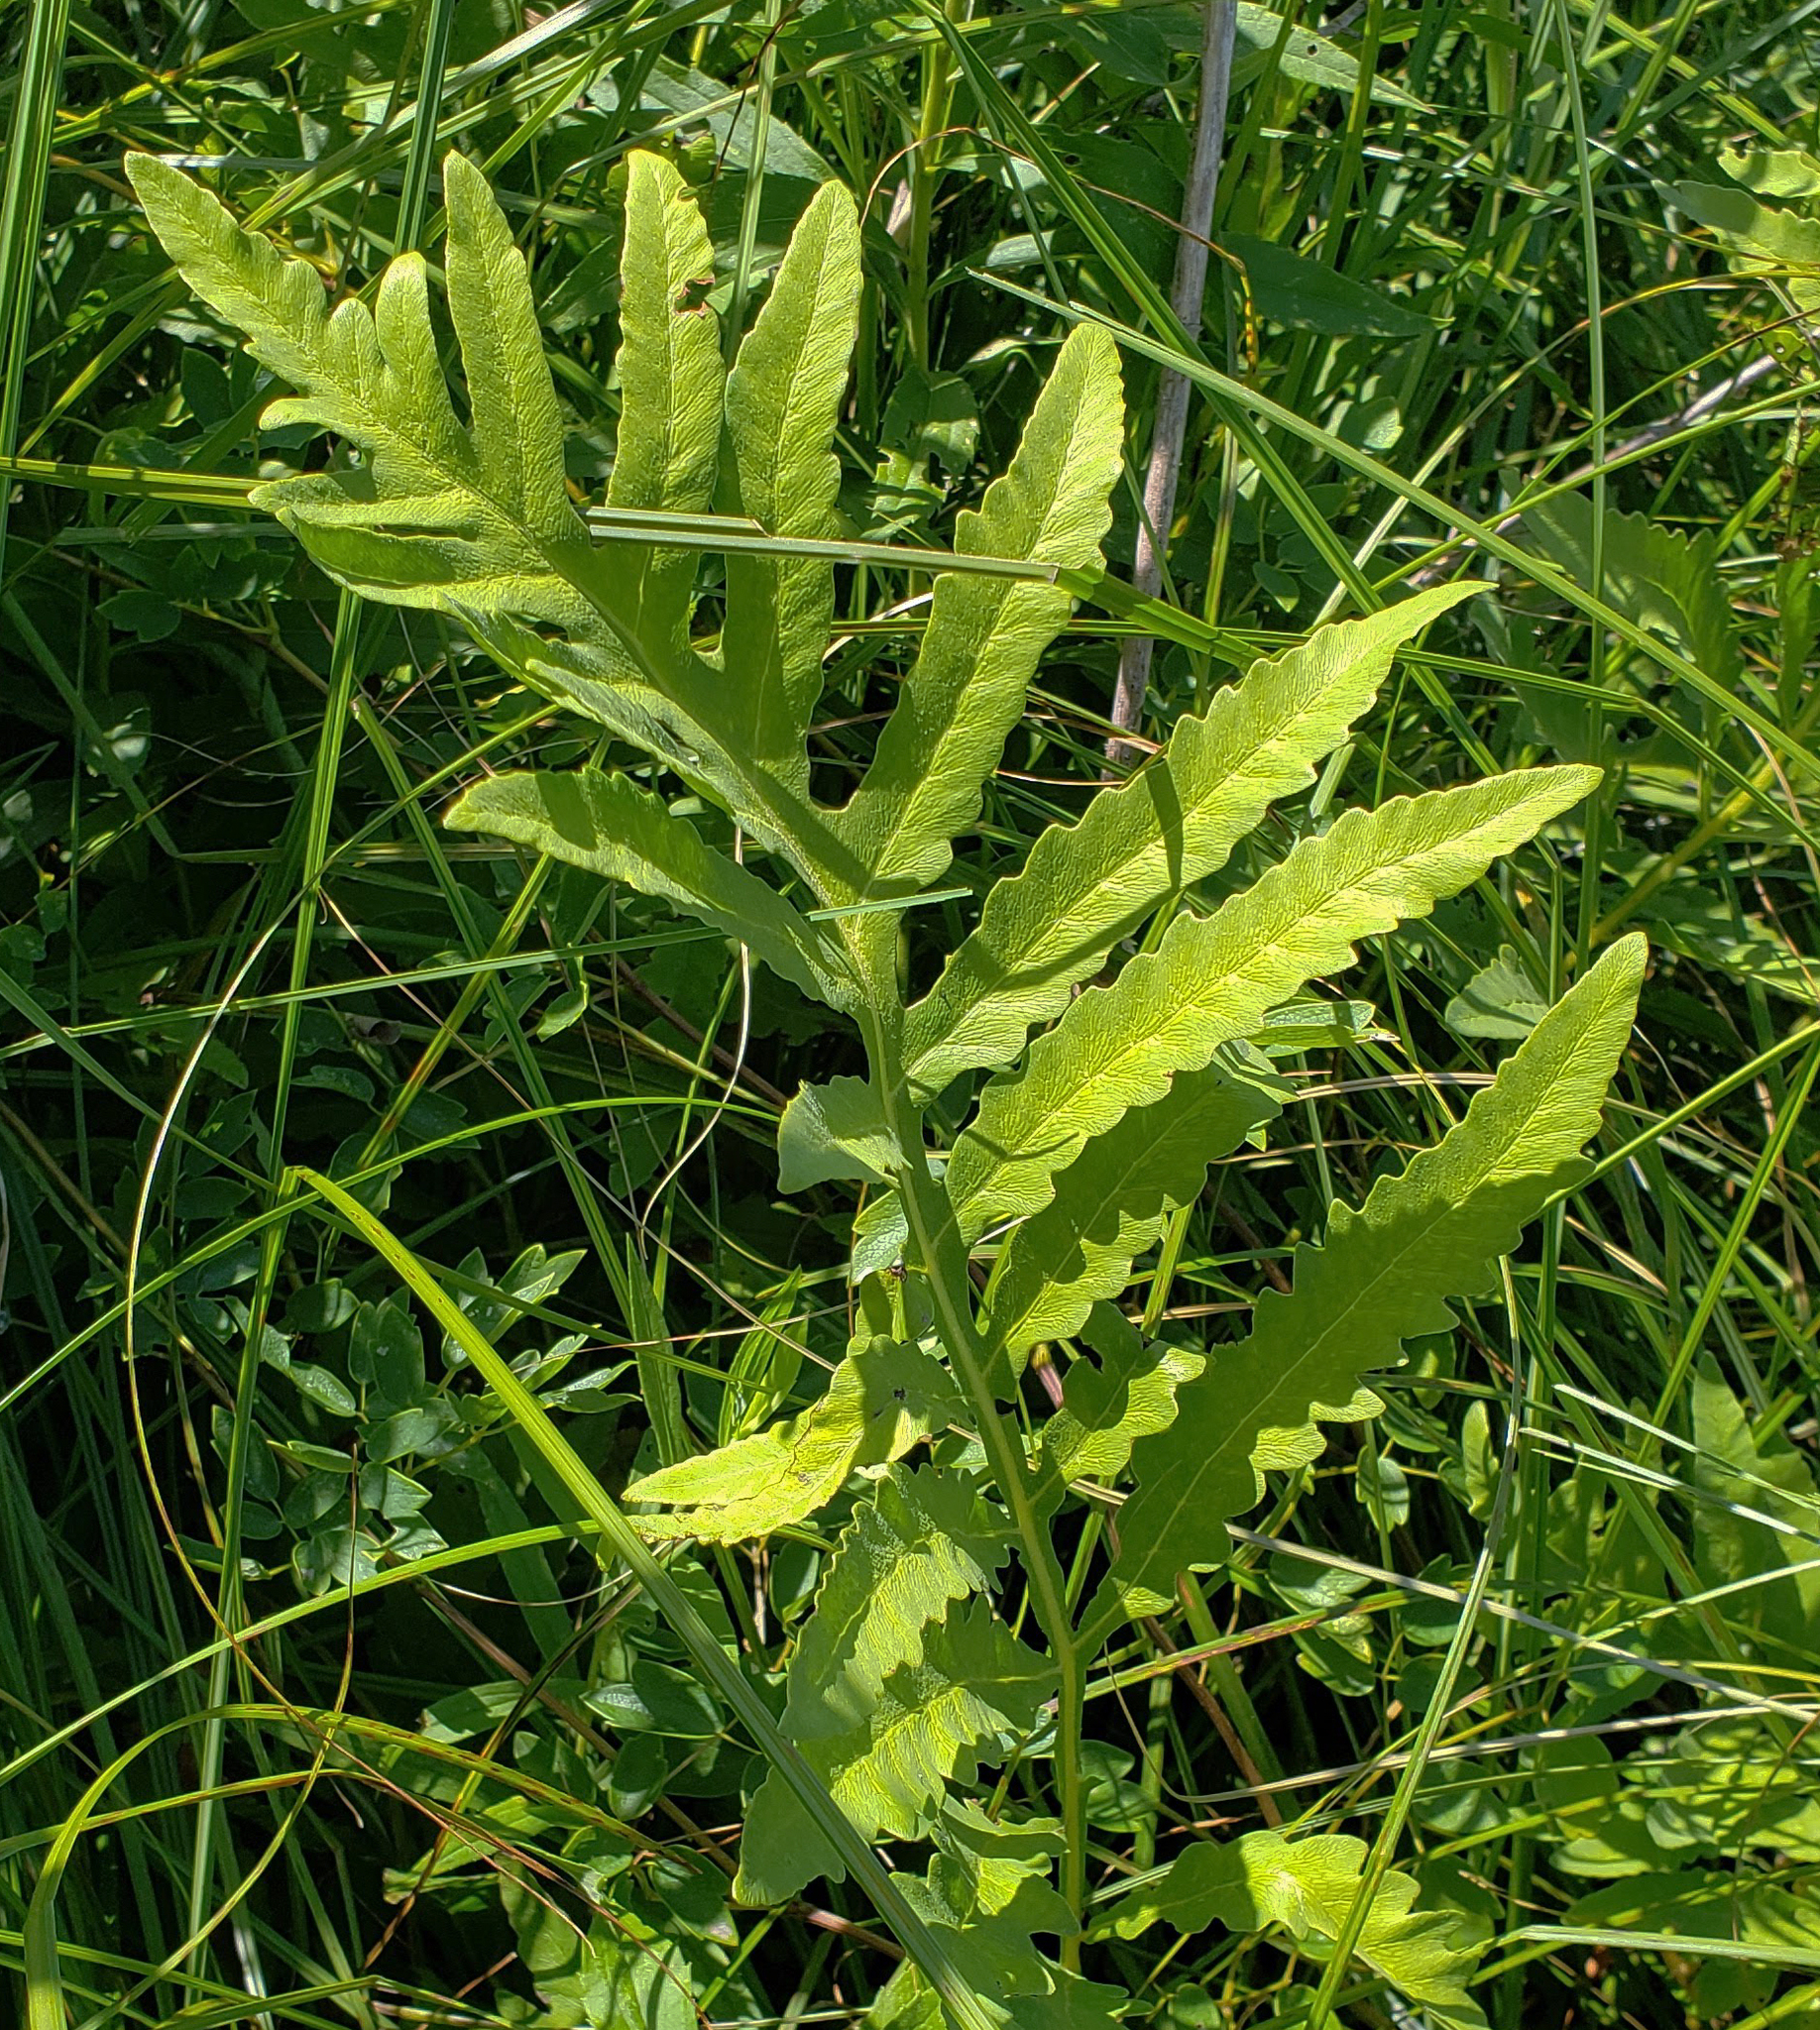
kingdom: Plantae
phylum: Tracheophyta
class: Polypodiopsida
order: Polypodiales
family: Onocleaceae
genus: Onoclea
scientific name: Onoclea sensibilis
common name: Sensitive fern
